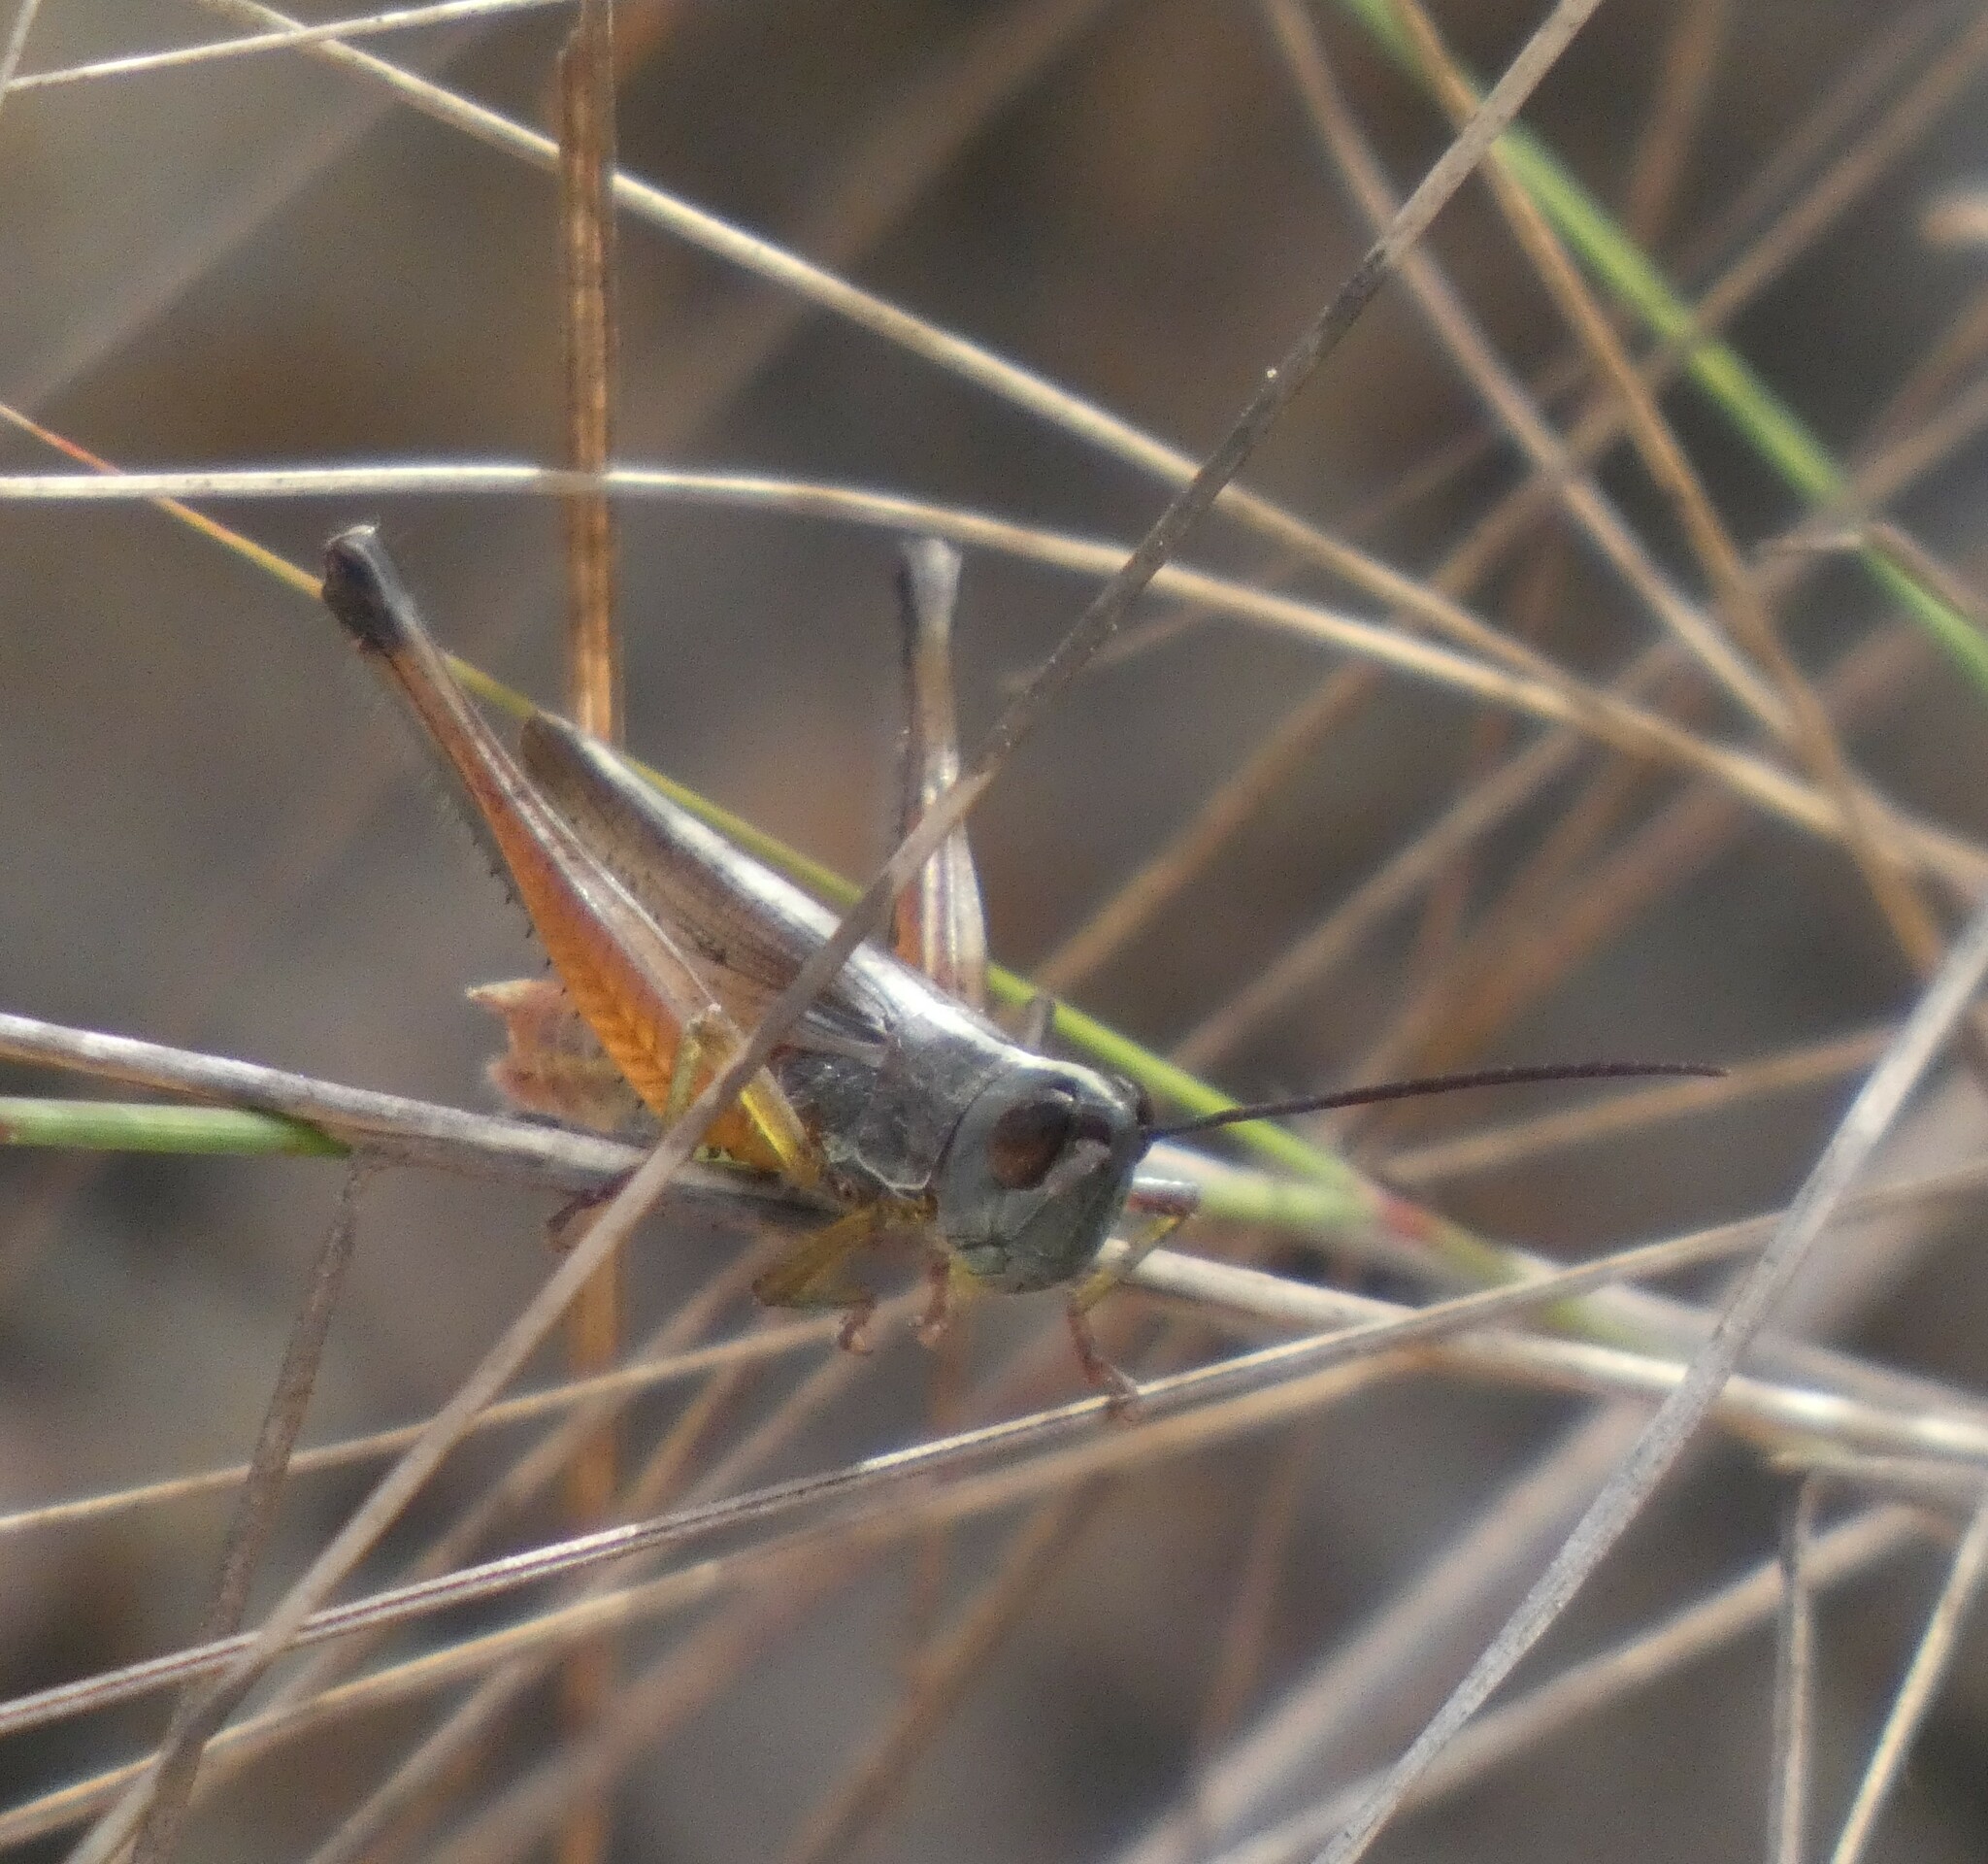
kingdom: Animalia
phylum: Arthropoda
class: Insecta
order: Orthoptera
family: Acrididae
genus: Staurorhectus
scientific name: Staurorhectus longicornis
